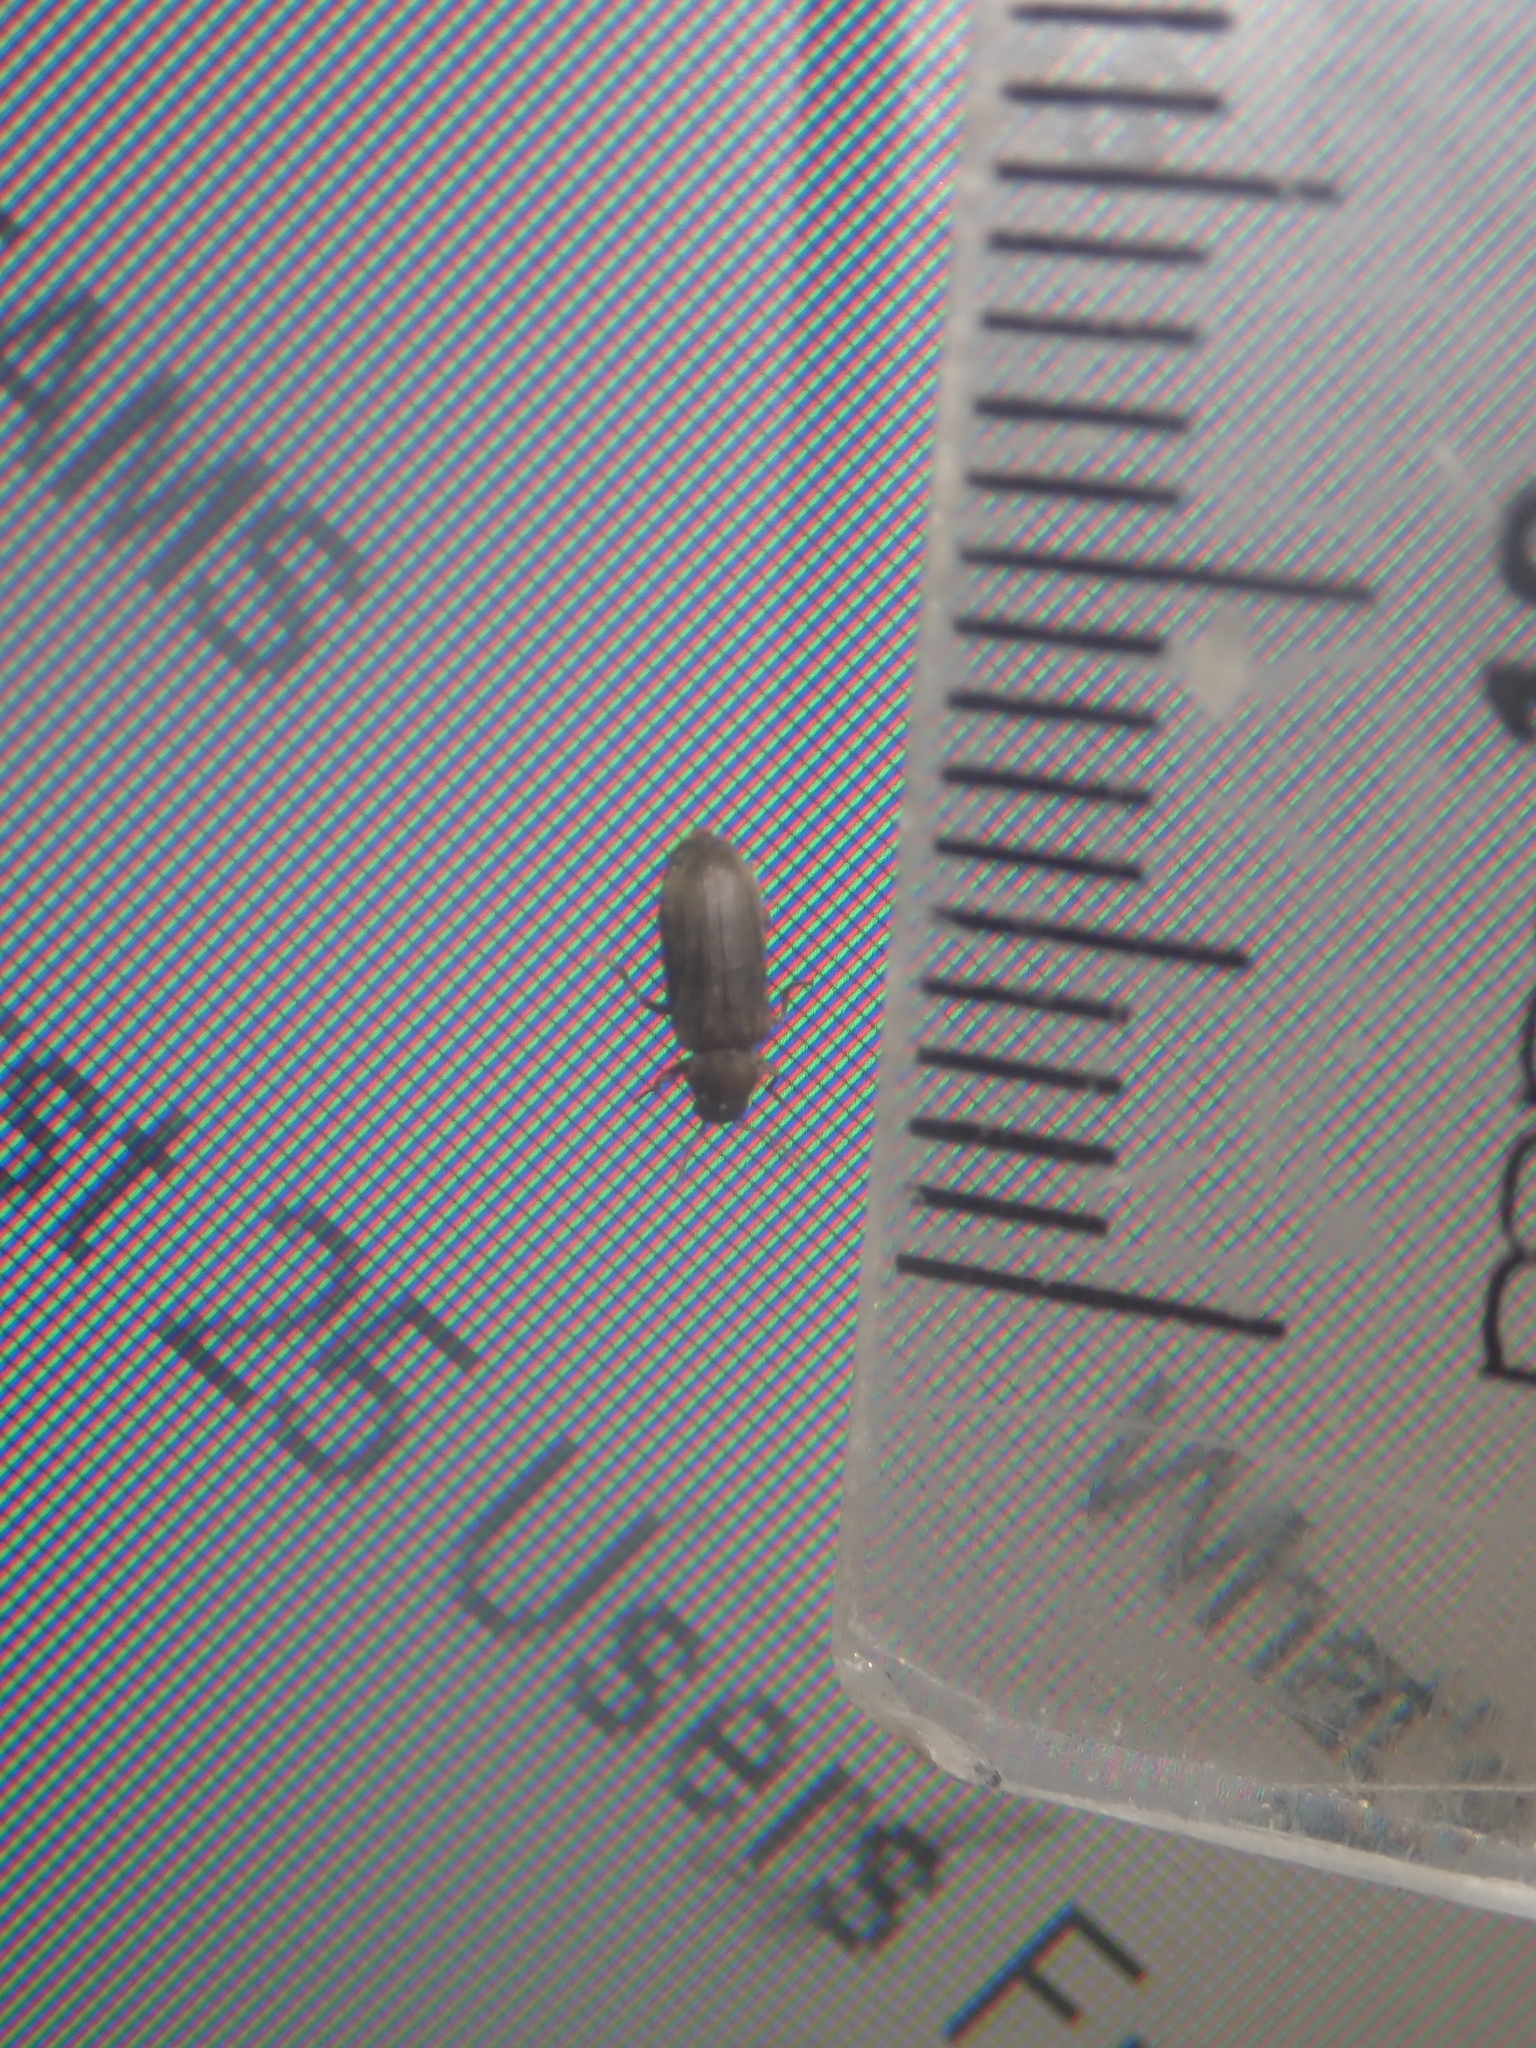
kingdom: Animalia
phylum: Arthropoda
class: Insecta
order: Coleoptera
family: Anobiidae
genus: Anobium
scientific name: Anobium punctatum
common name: Furniture beetle
